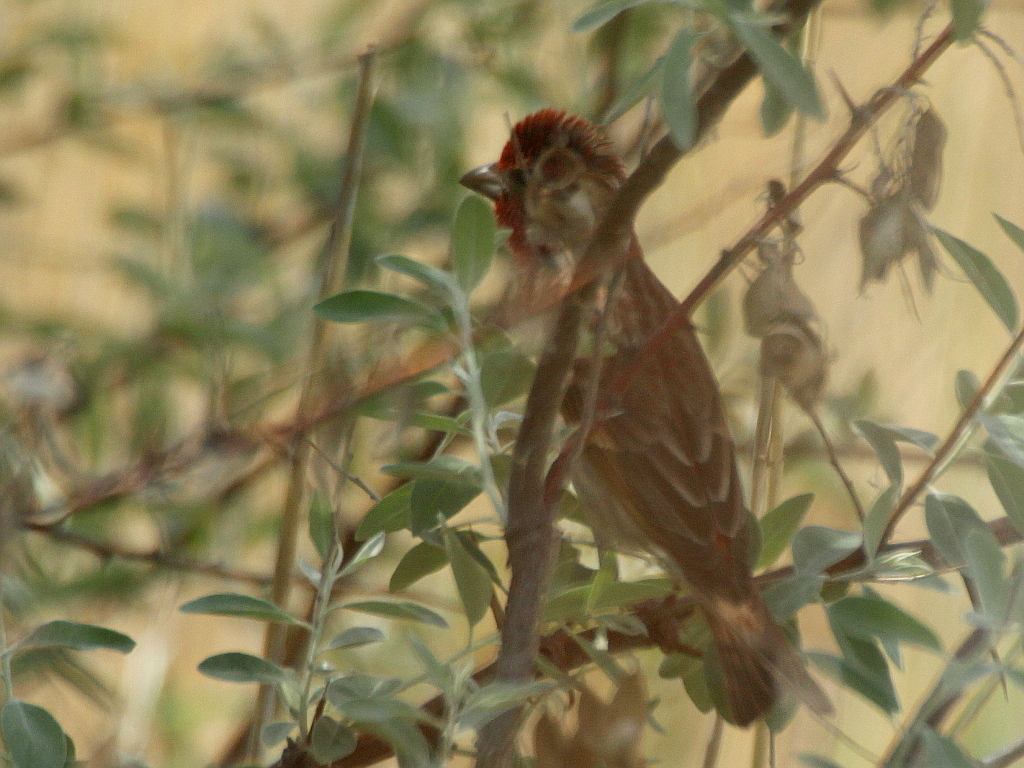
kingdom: Animalia
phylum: Chordata
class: Aves
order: Passeriformes
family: Fringillidae
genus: Carpodacus
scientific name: Carpodacus erythrinus
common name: Common rosefinch
